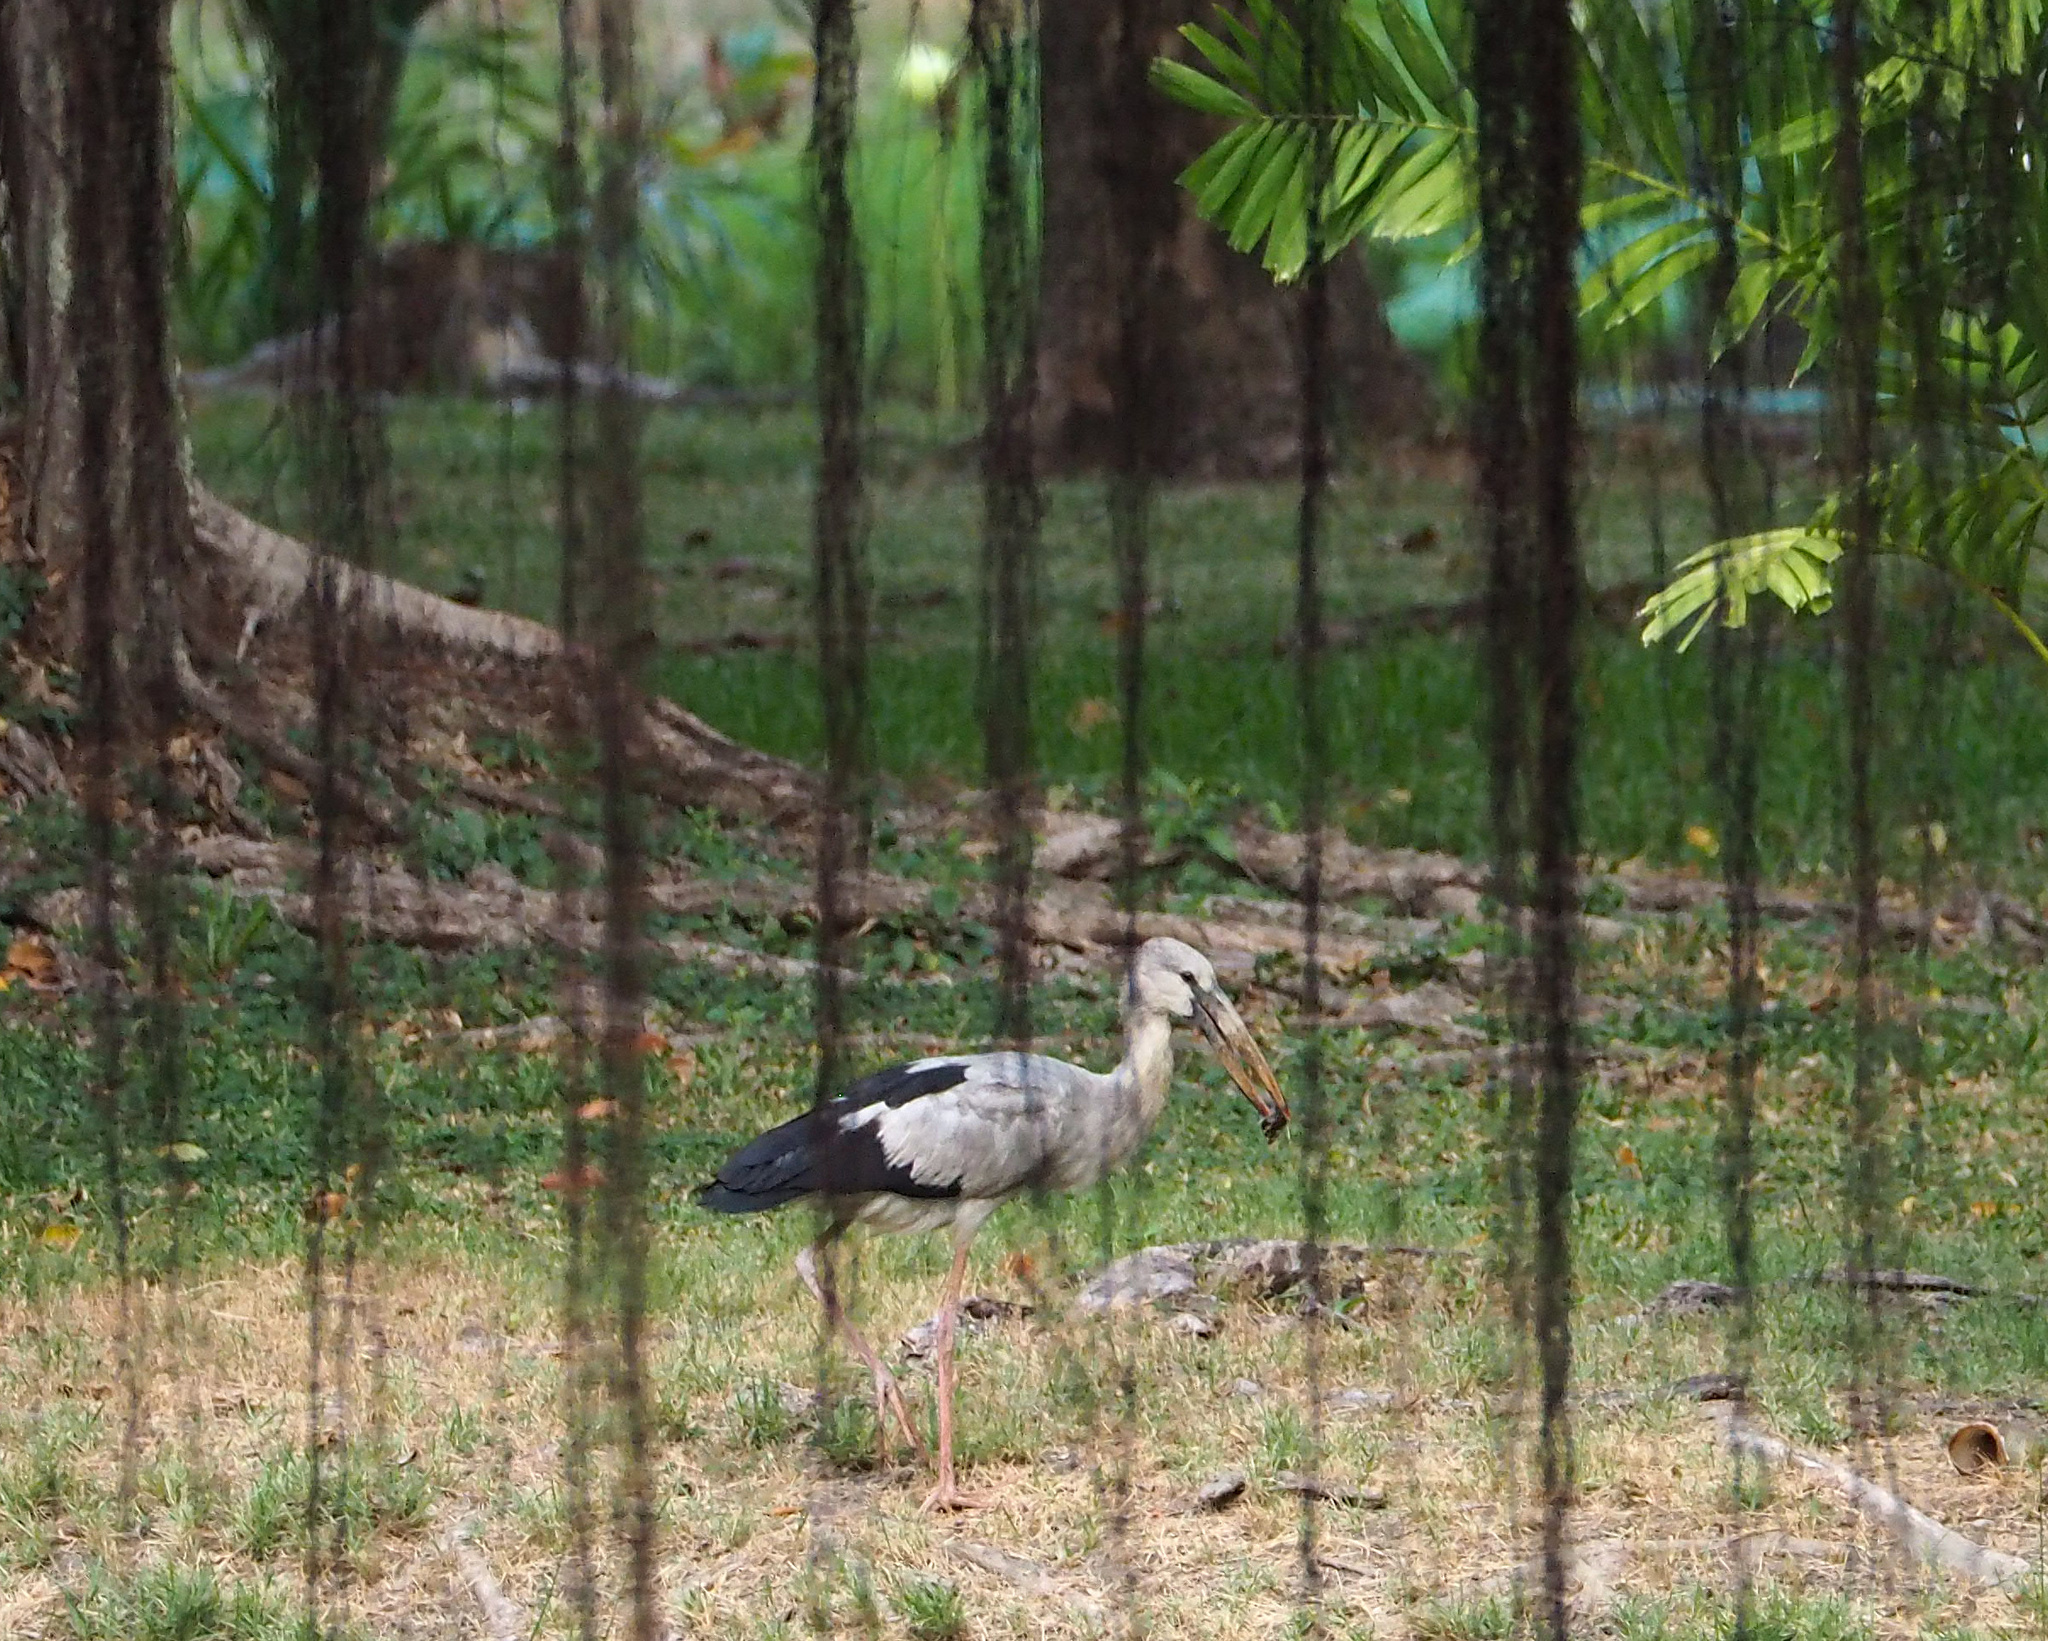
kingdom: Animalia
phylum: Chordata
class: Aves
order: Ciconiiformes
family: Ciconiidae
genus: Anastomus
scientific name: Anastomus oscitans
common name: Asian openbill
